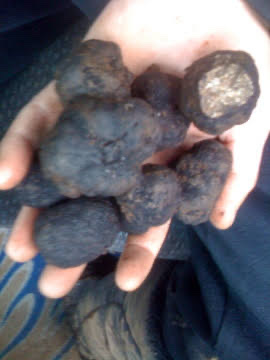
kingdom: Fungi
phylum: Ascomycota
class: Pezizomycetes
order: Pezizales
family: Morchellaceae
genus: Leucangium
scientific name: Leucangium carthusianum
